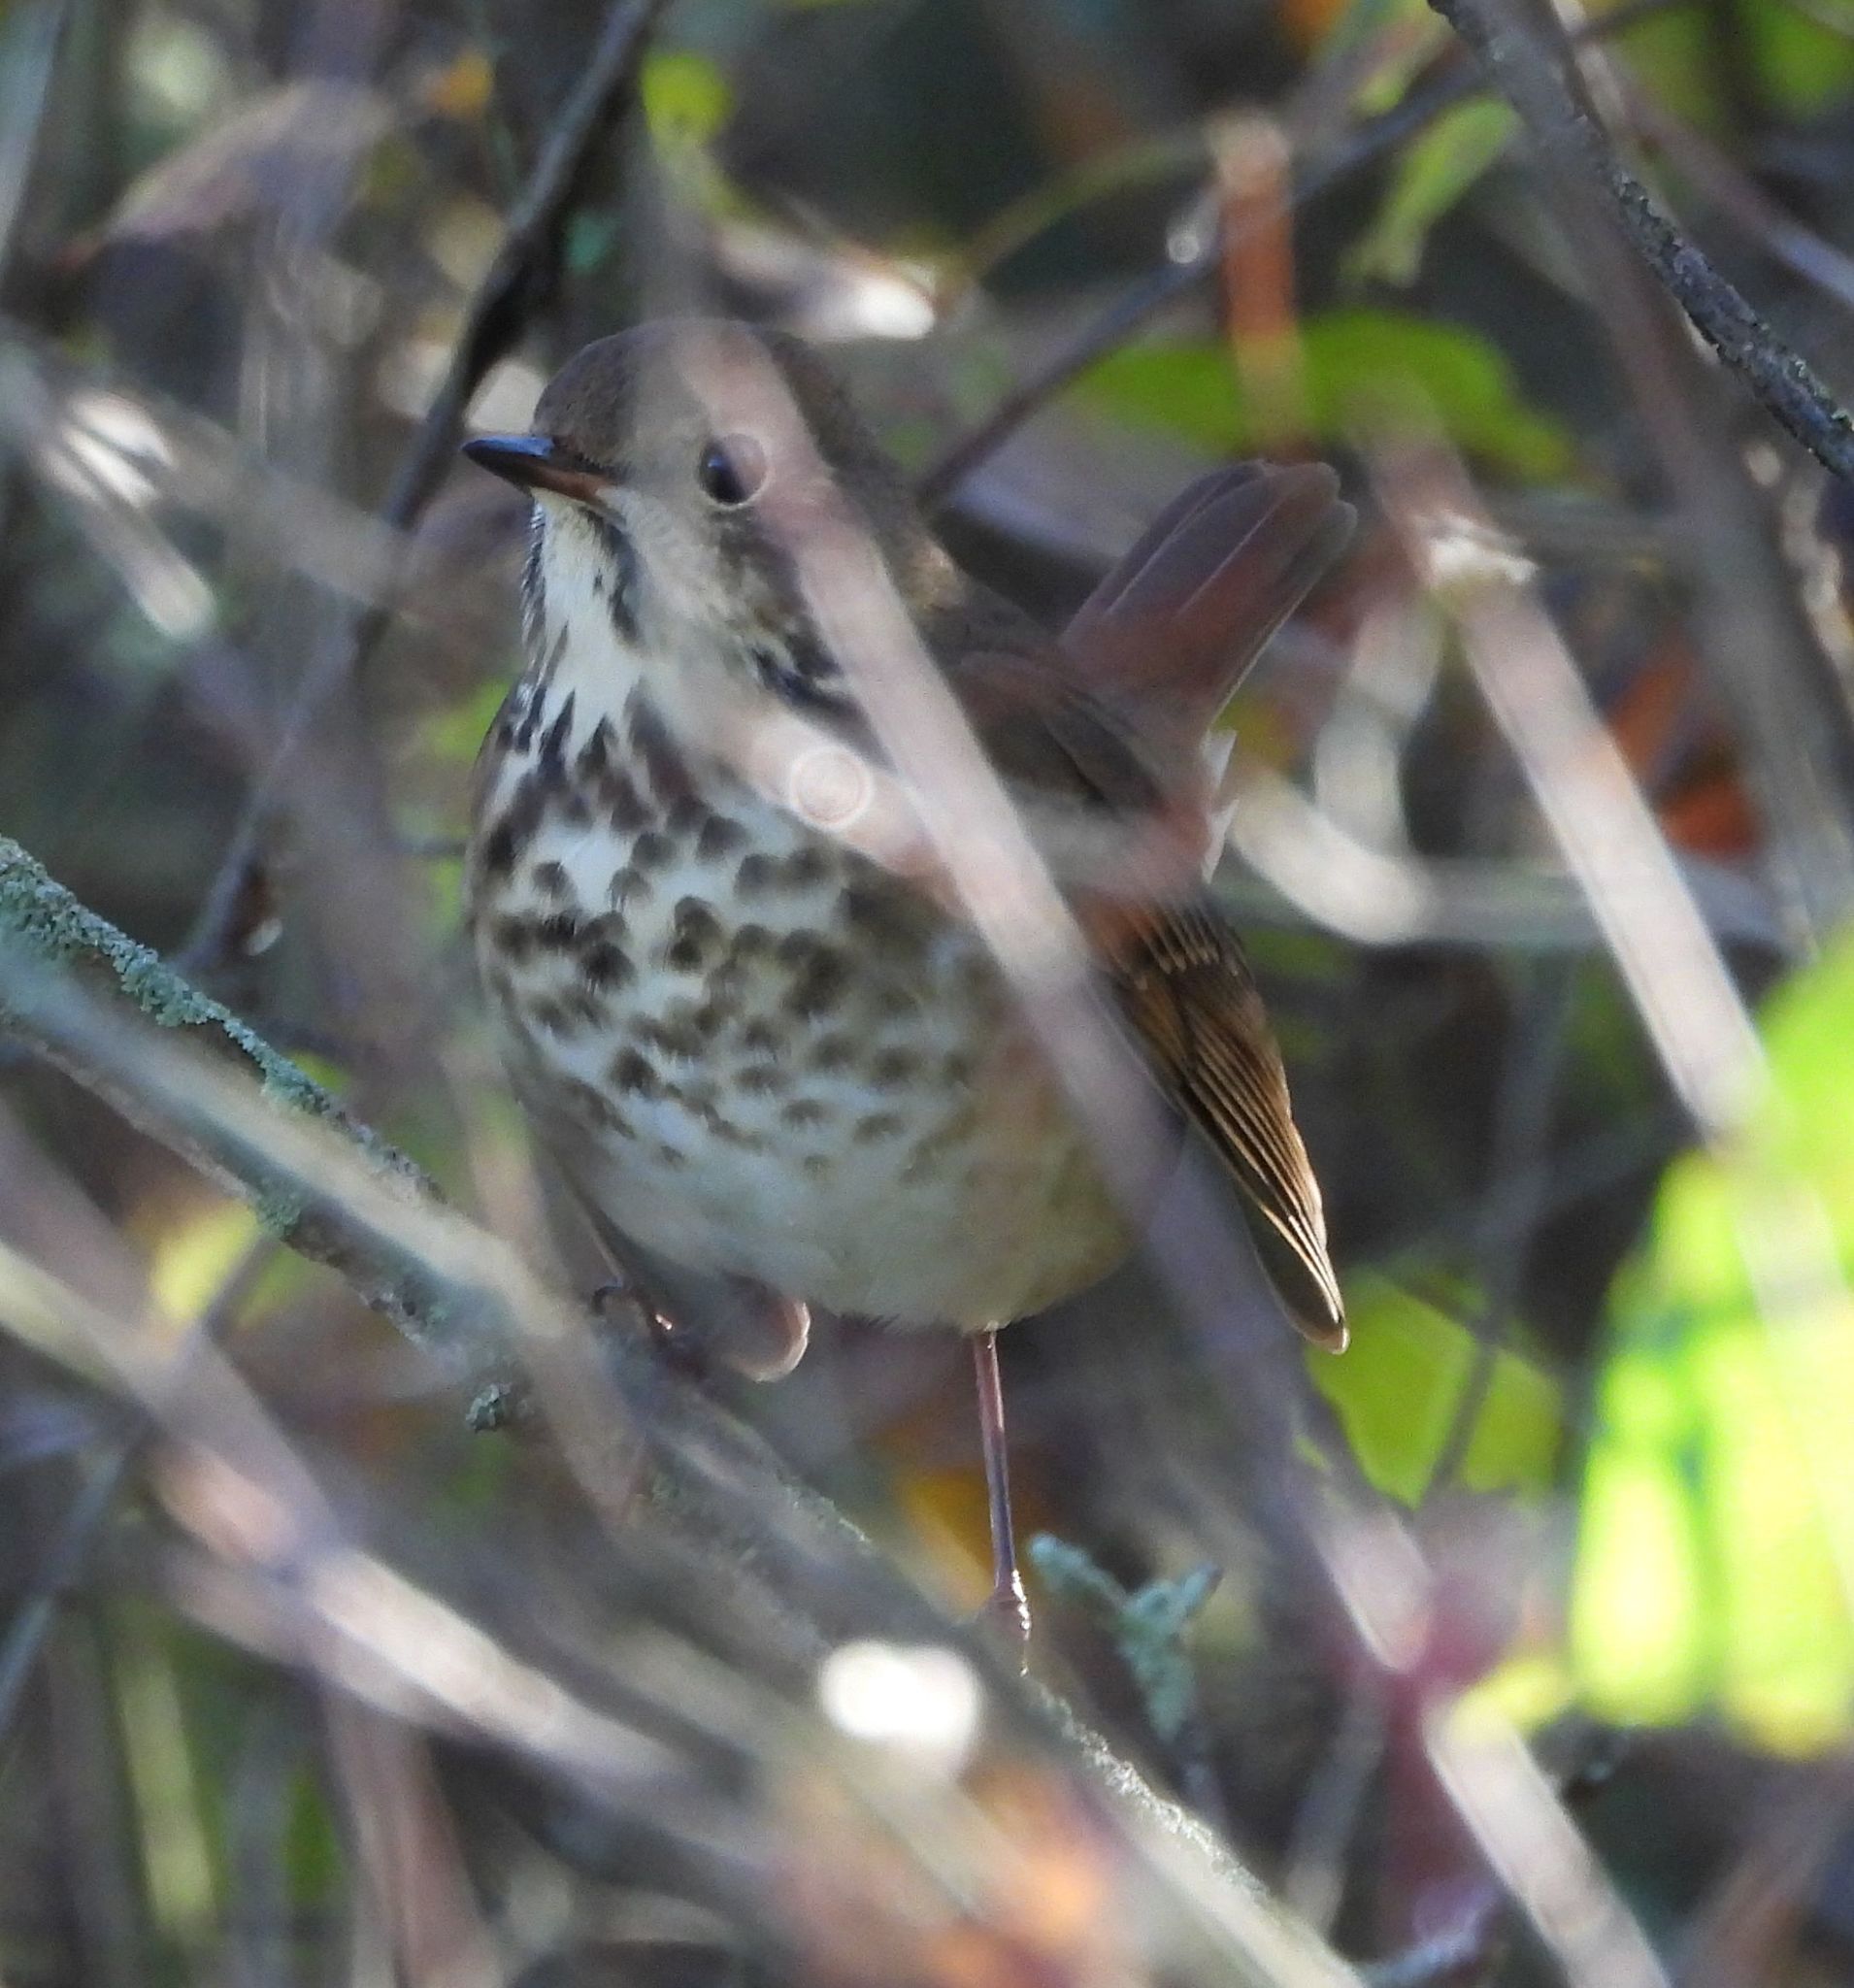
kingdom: Animalia
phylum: Chordata
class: Aves
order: Passeriformes
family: Turdidae
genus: Catharus
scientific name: Catharus guttatus
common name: Hermit thrush
